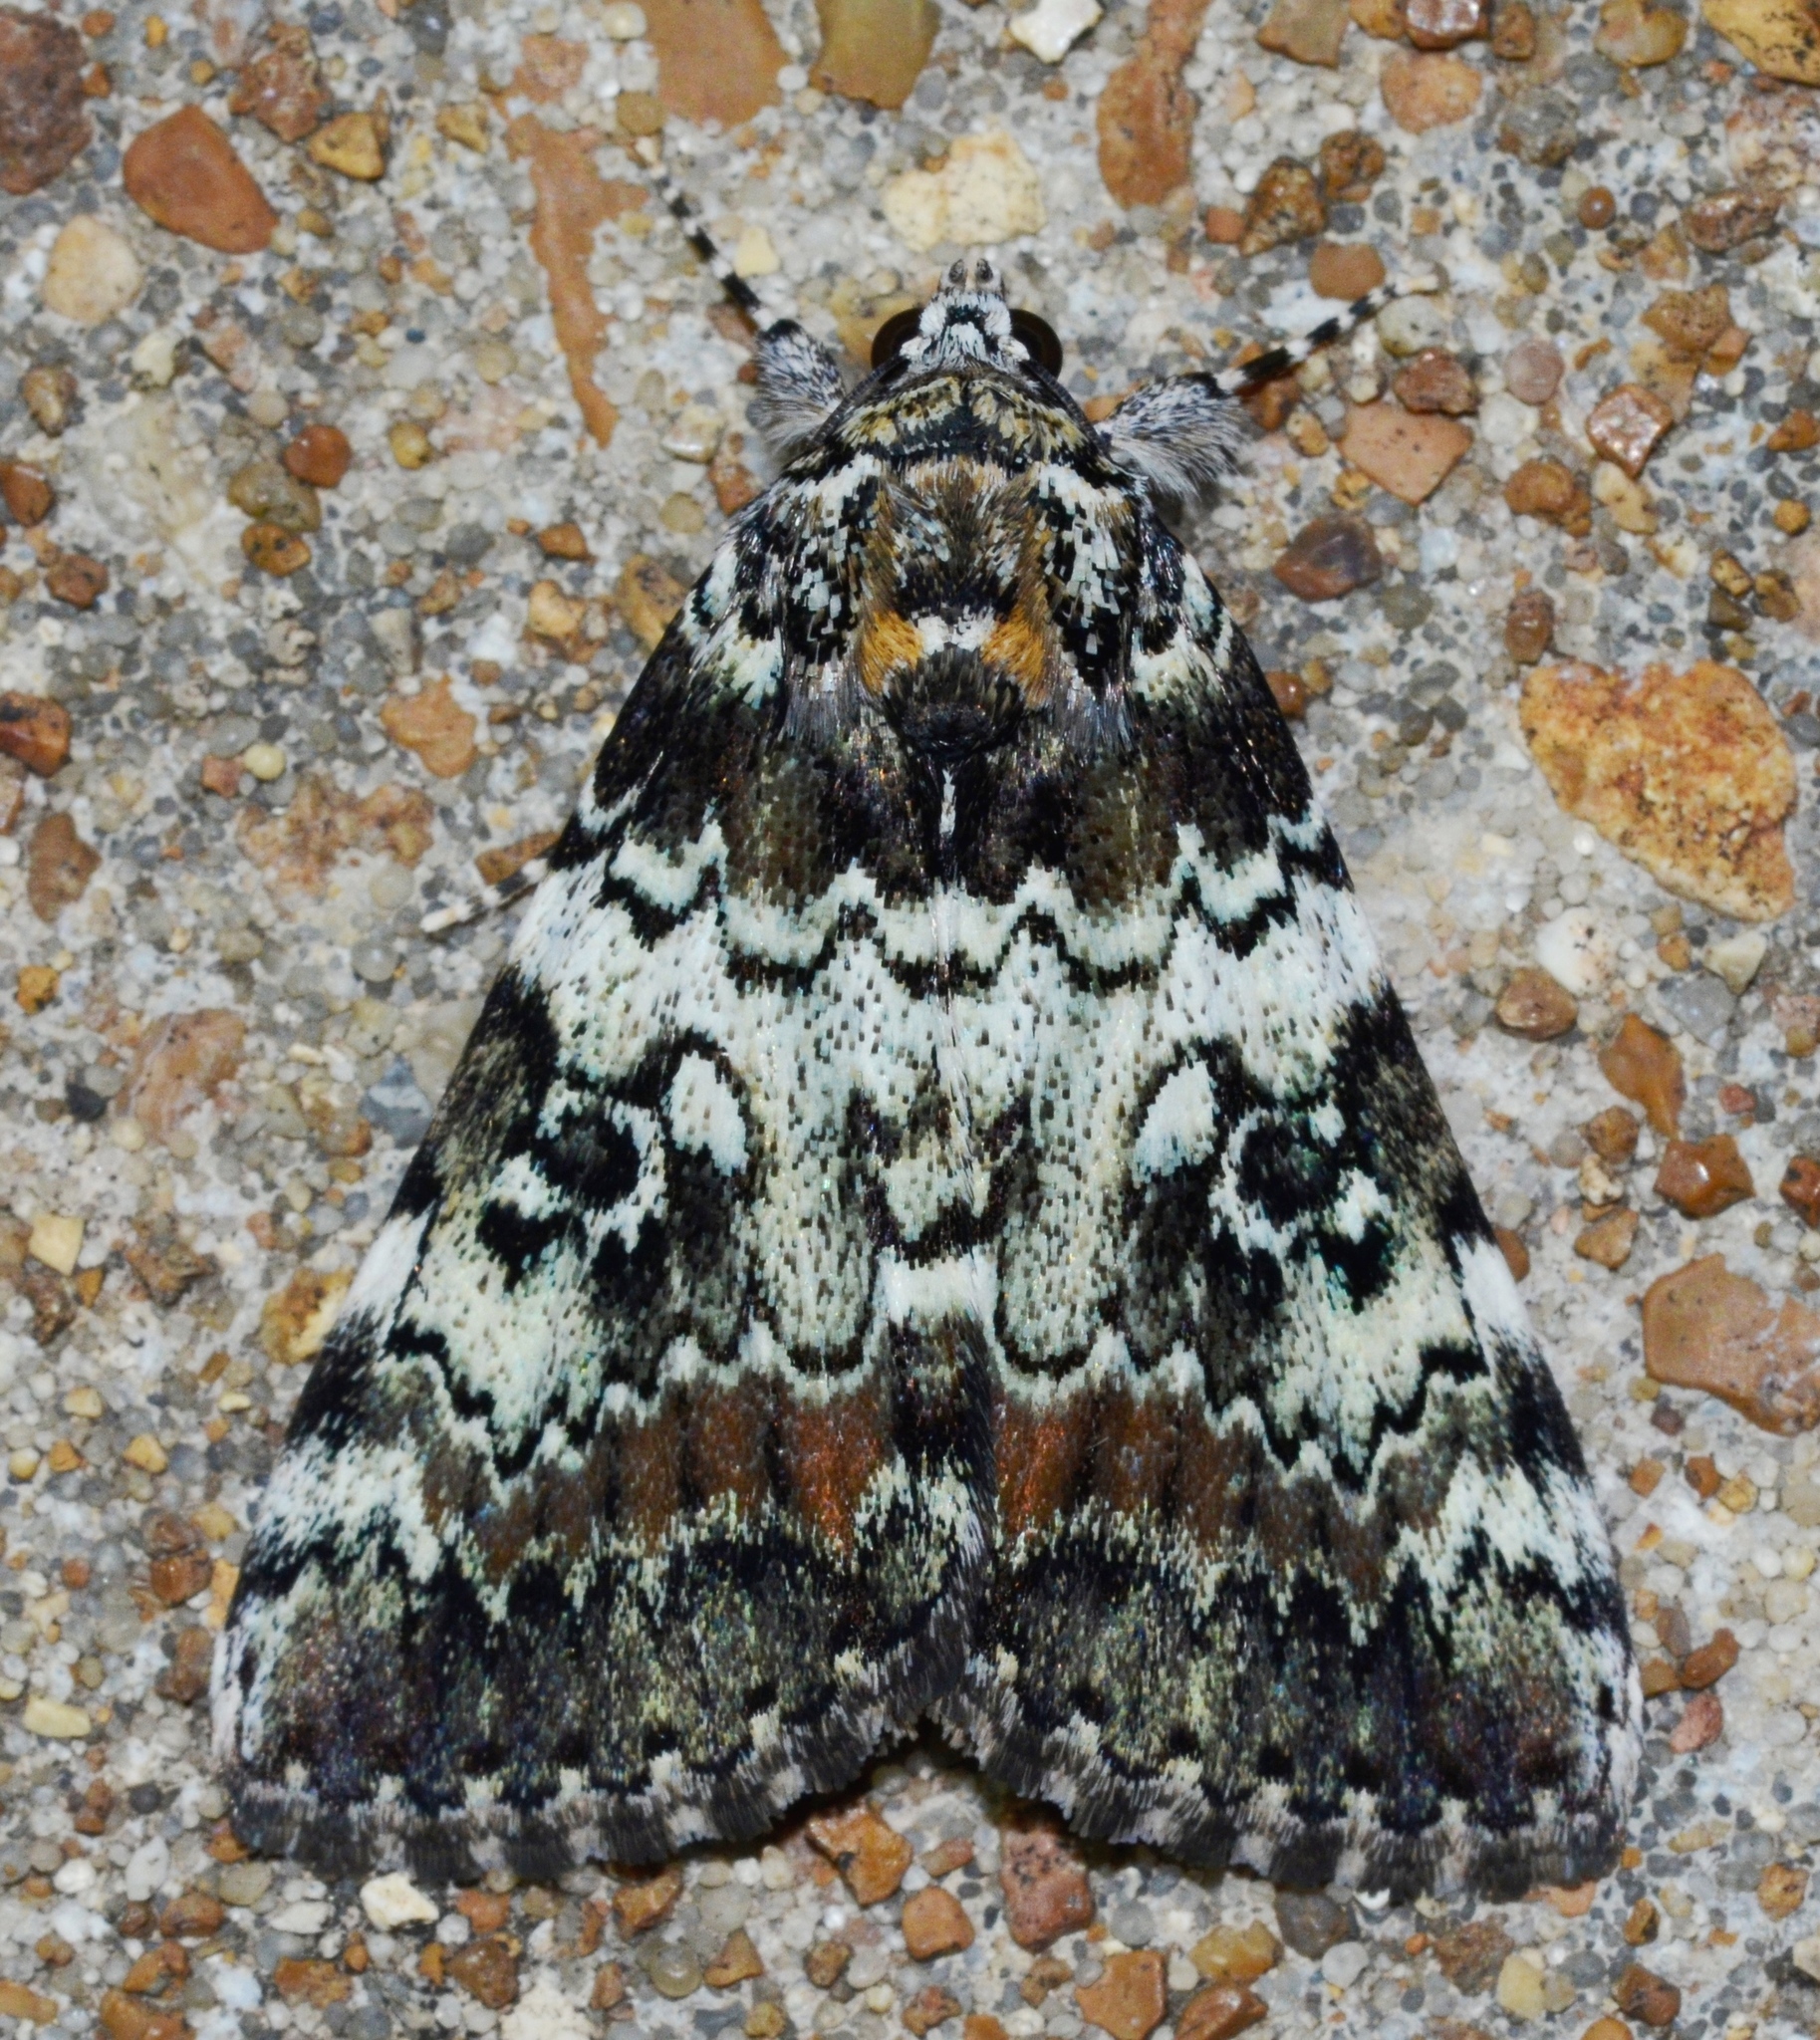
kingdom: Animalia
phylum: Arthropoda
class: Insecta
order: Lepidoptera
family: Erebidae
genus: Catocala
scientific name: Catocala connubialis
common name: Connubial underwing
